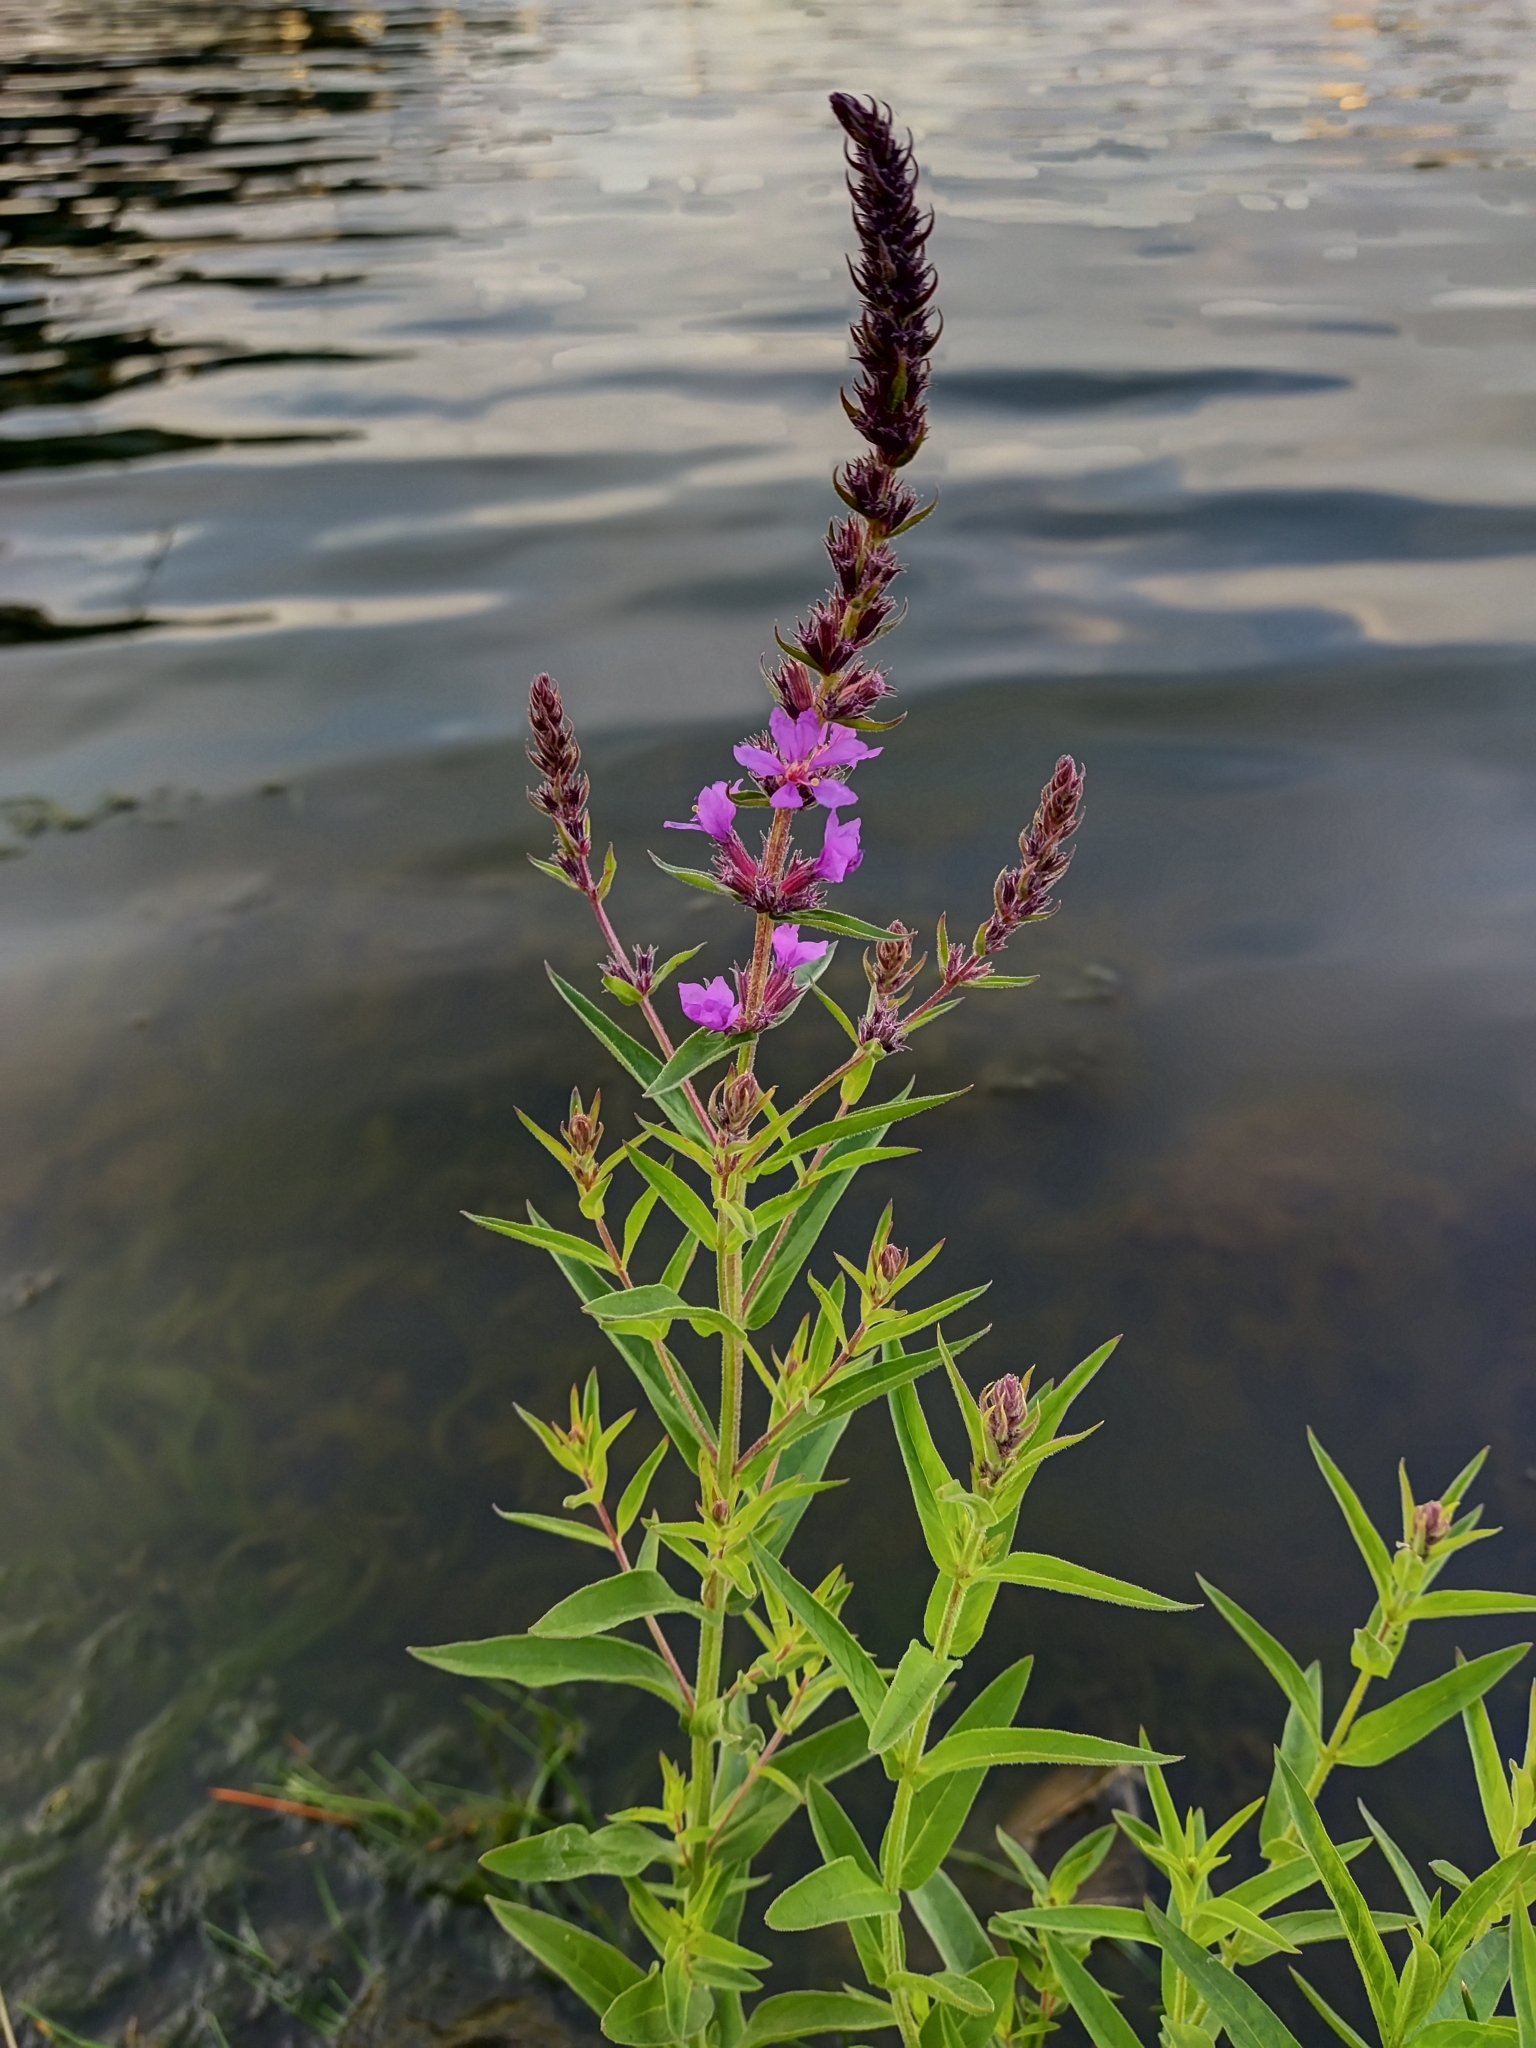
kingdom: Plantae
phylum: Tracheophyta
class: Magnoliopsida
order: Myrtales
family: Lythraceae
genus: Lythrum
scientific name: Lythrum salicaria
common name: Purple loosestrife
